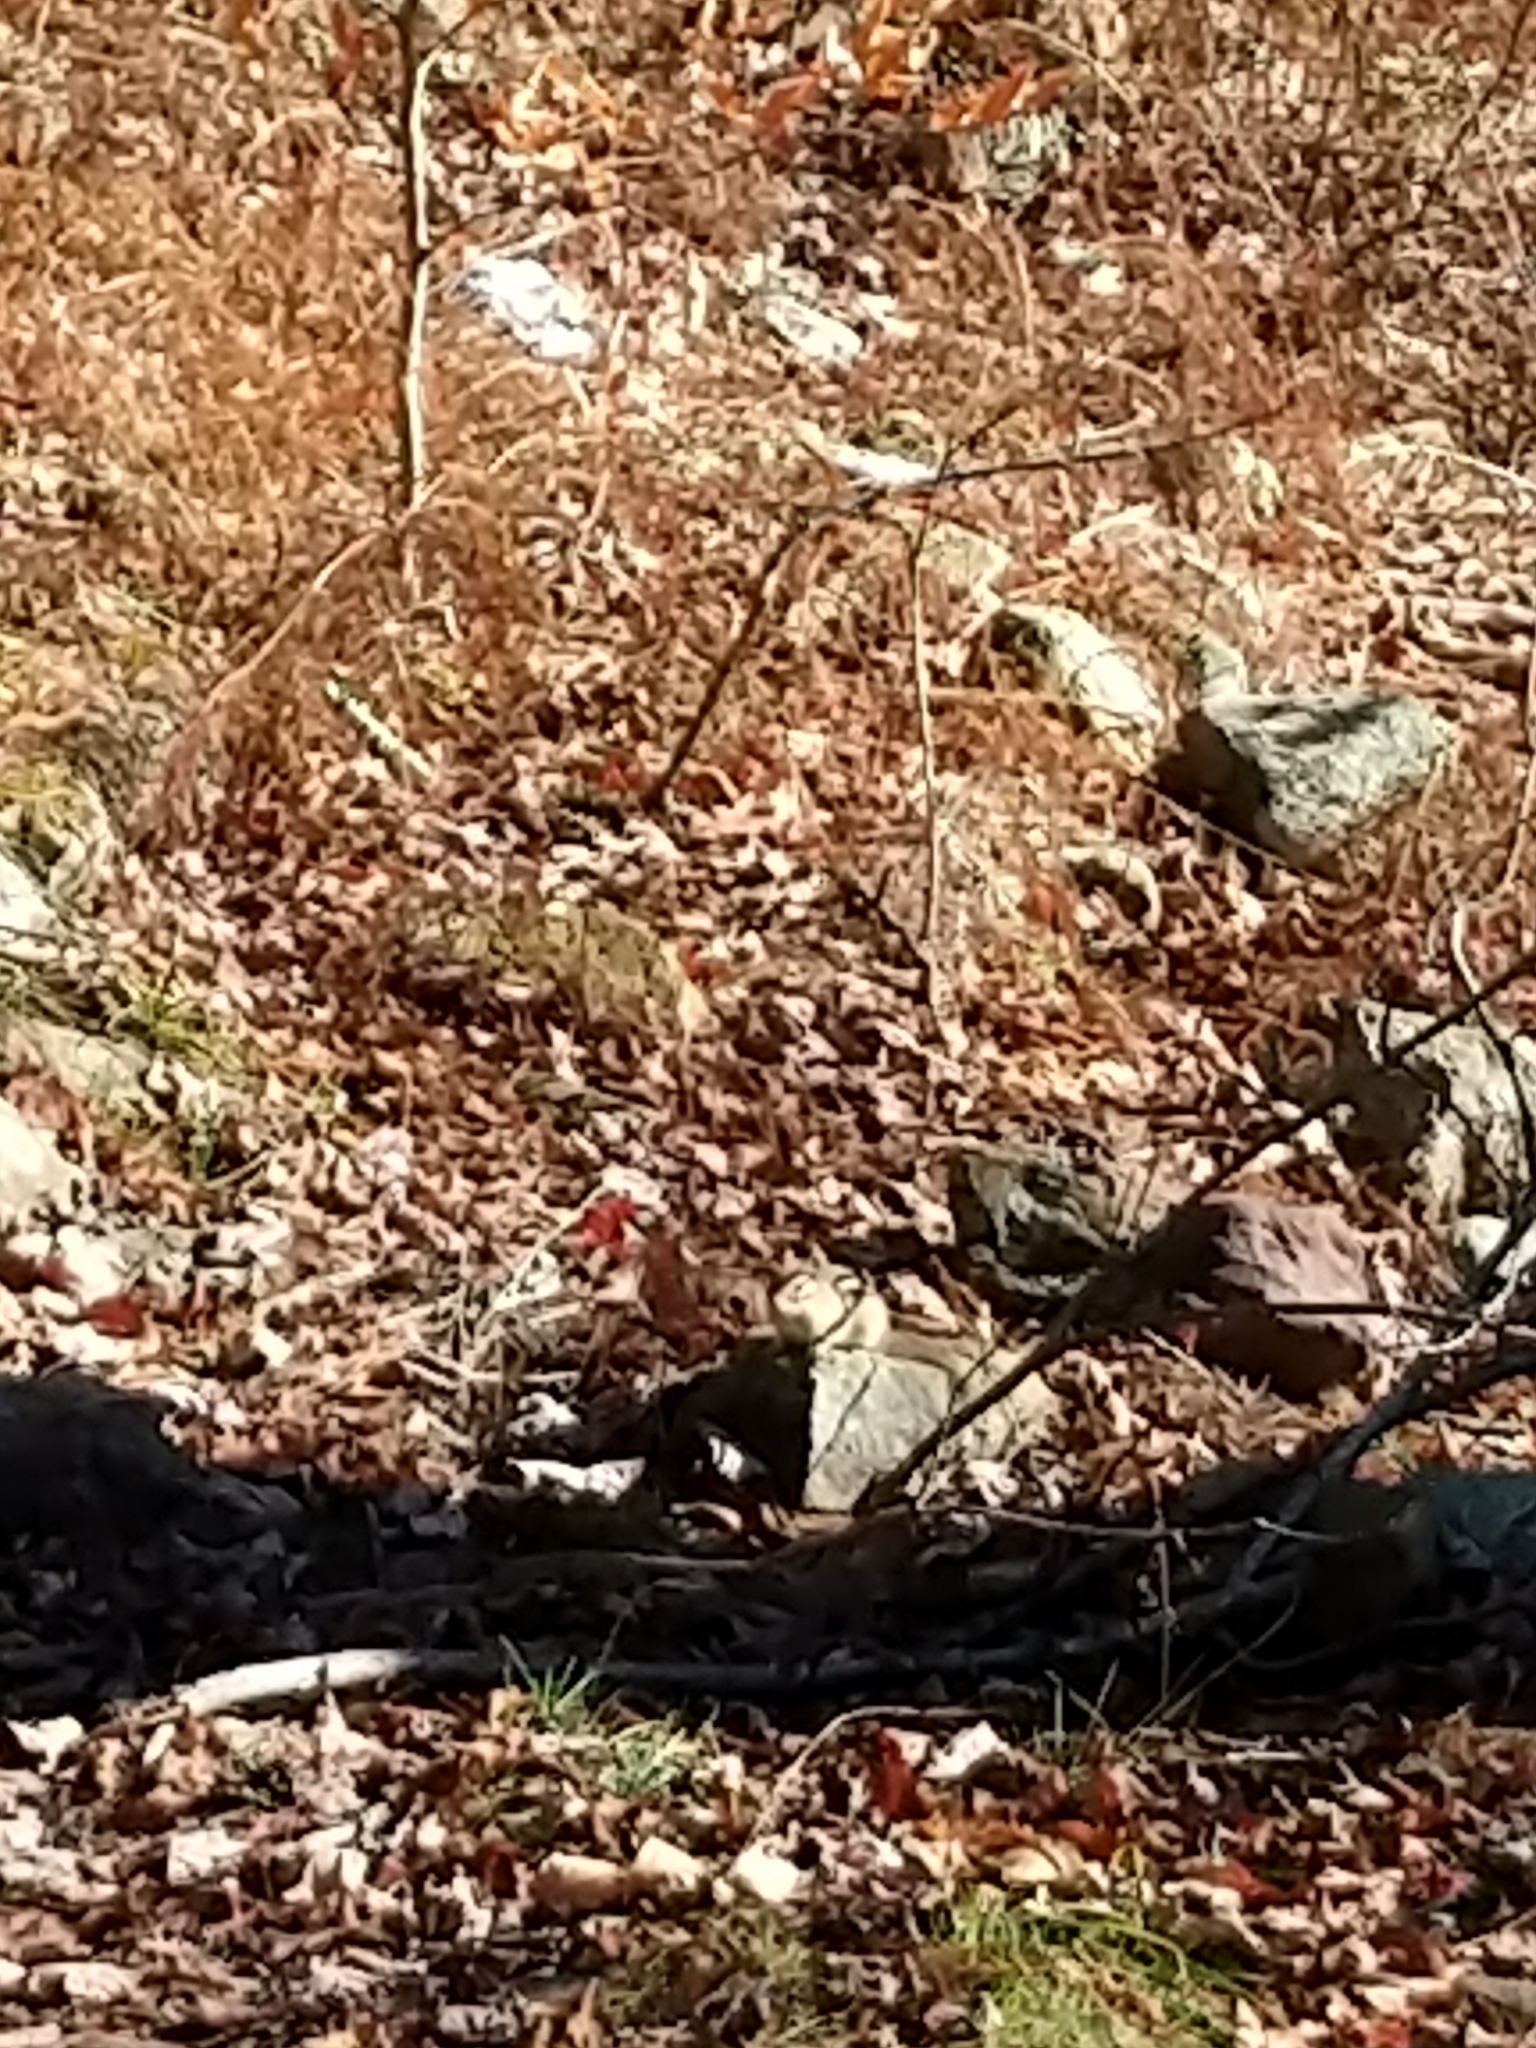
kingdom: Animalia
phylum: Chordata
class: Mammalia
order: Rodentia
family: Sciuridae
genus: Tamias
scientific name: Tamias striatus
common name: Eastern chipmunk
